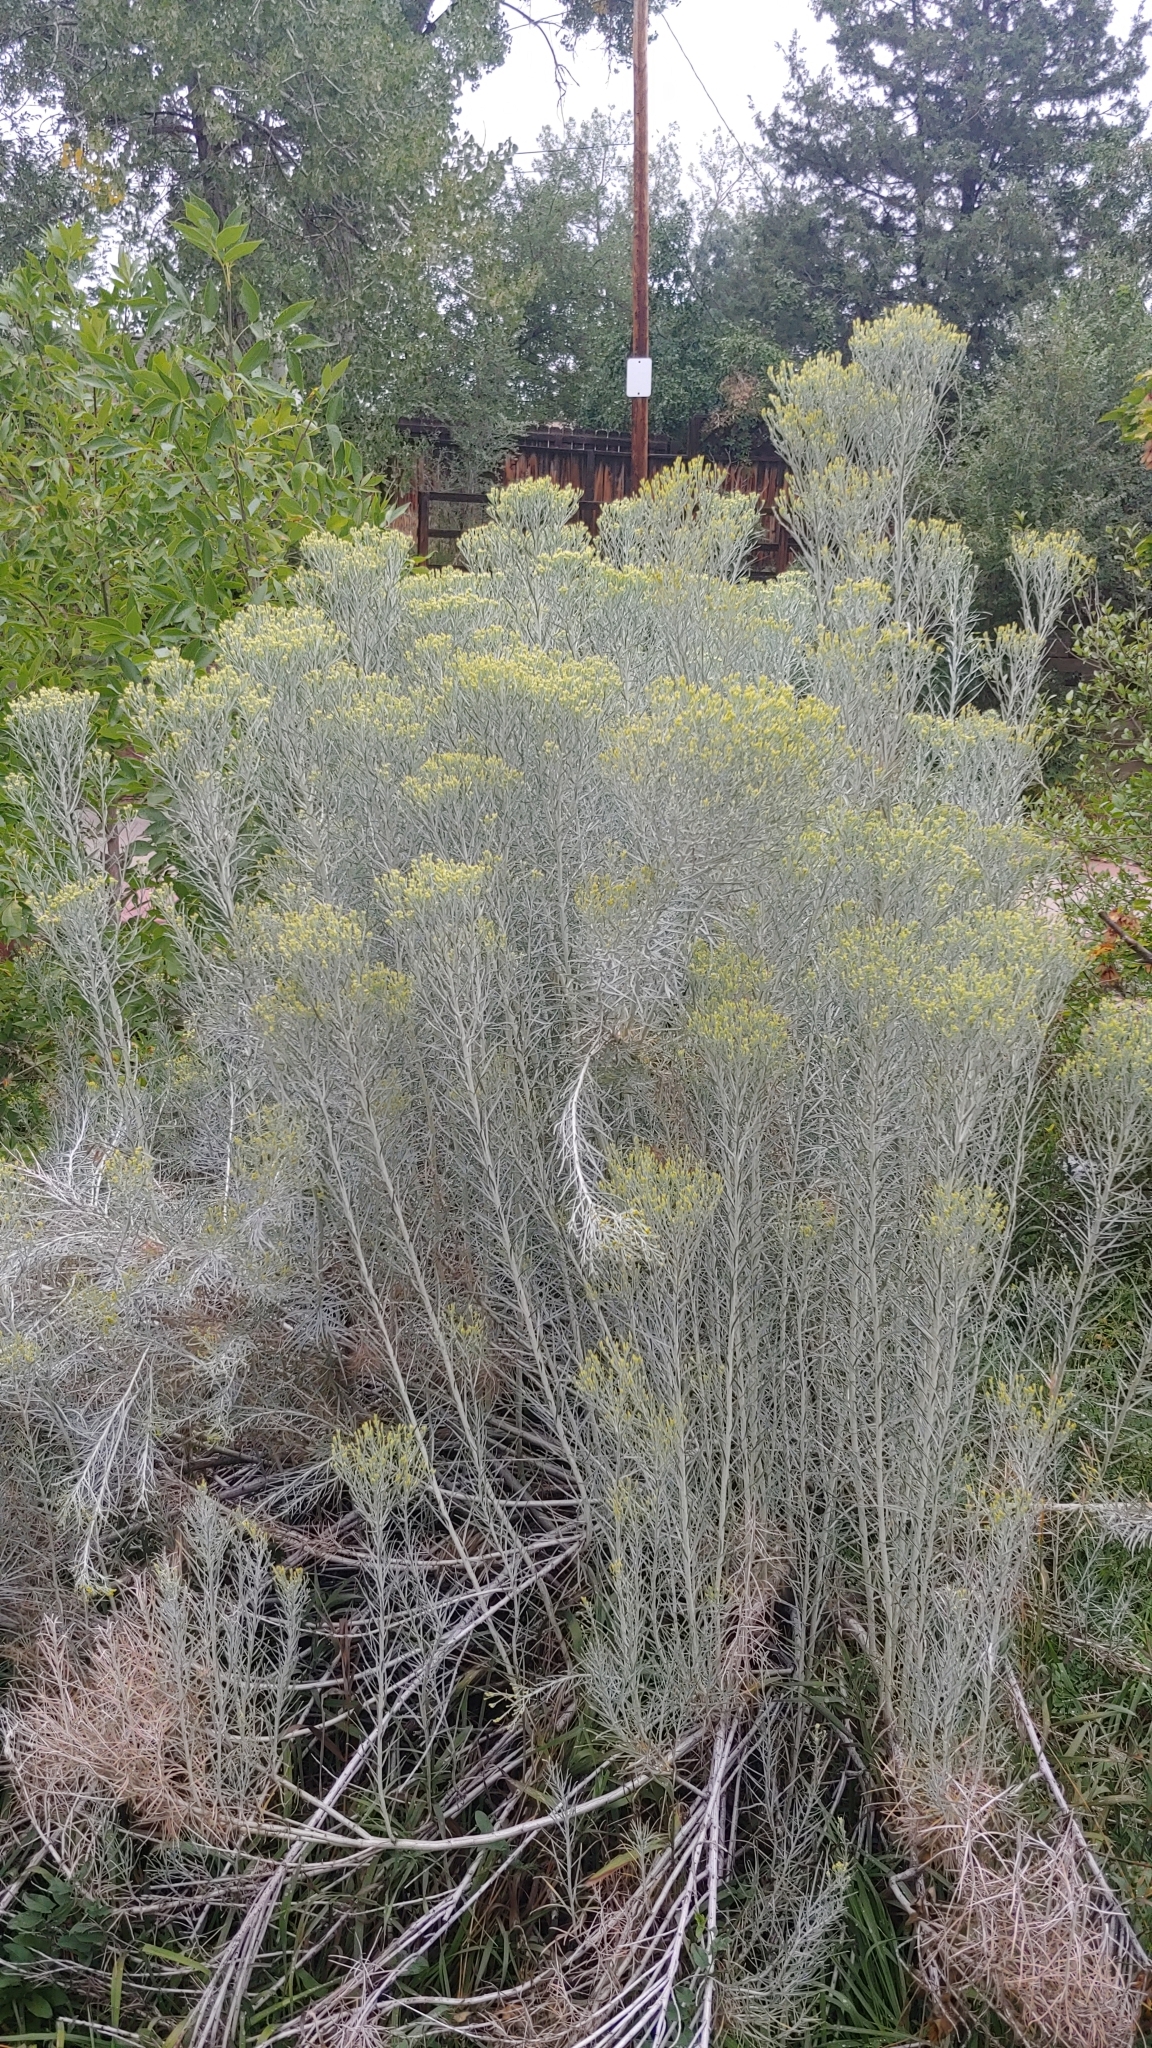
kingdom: Plantae
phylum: Tracheophyta
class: Magnoliopsida
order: Asterales
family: Asteraceae
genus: Ericameria
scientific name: Ericameria nauseosa
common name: Rubber rabbitbrush
